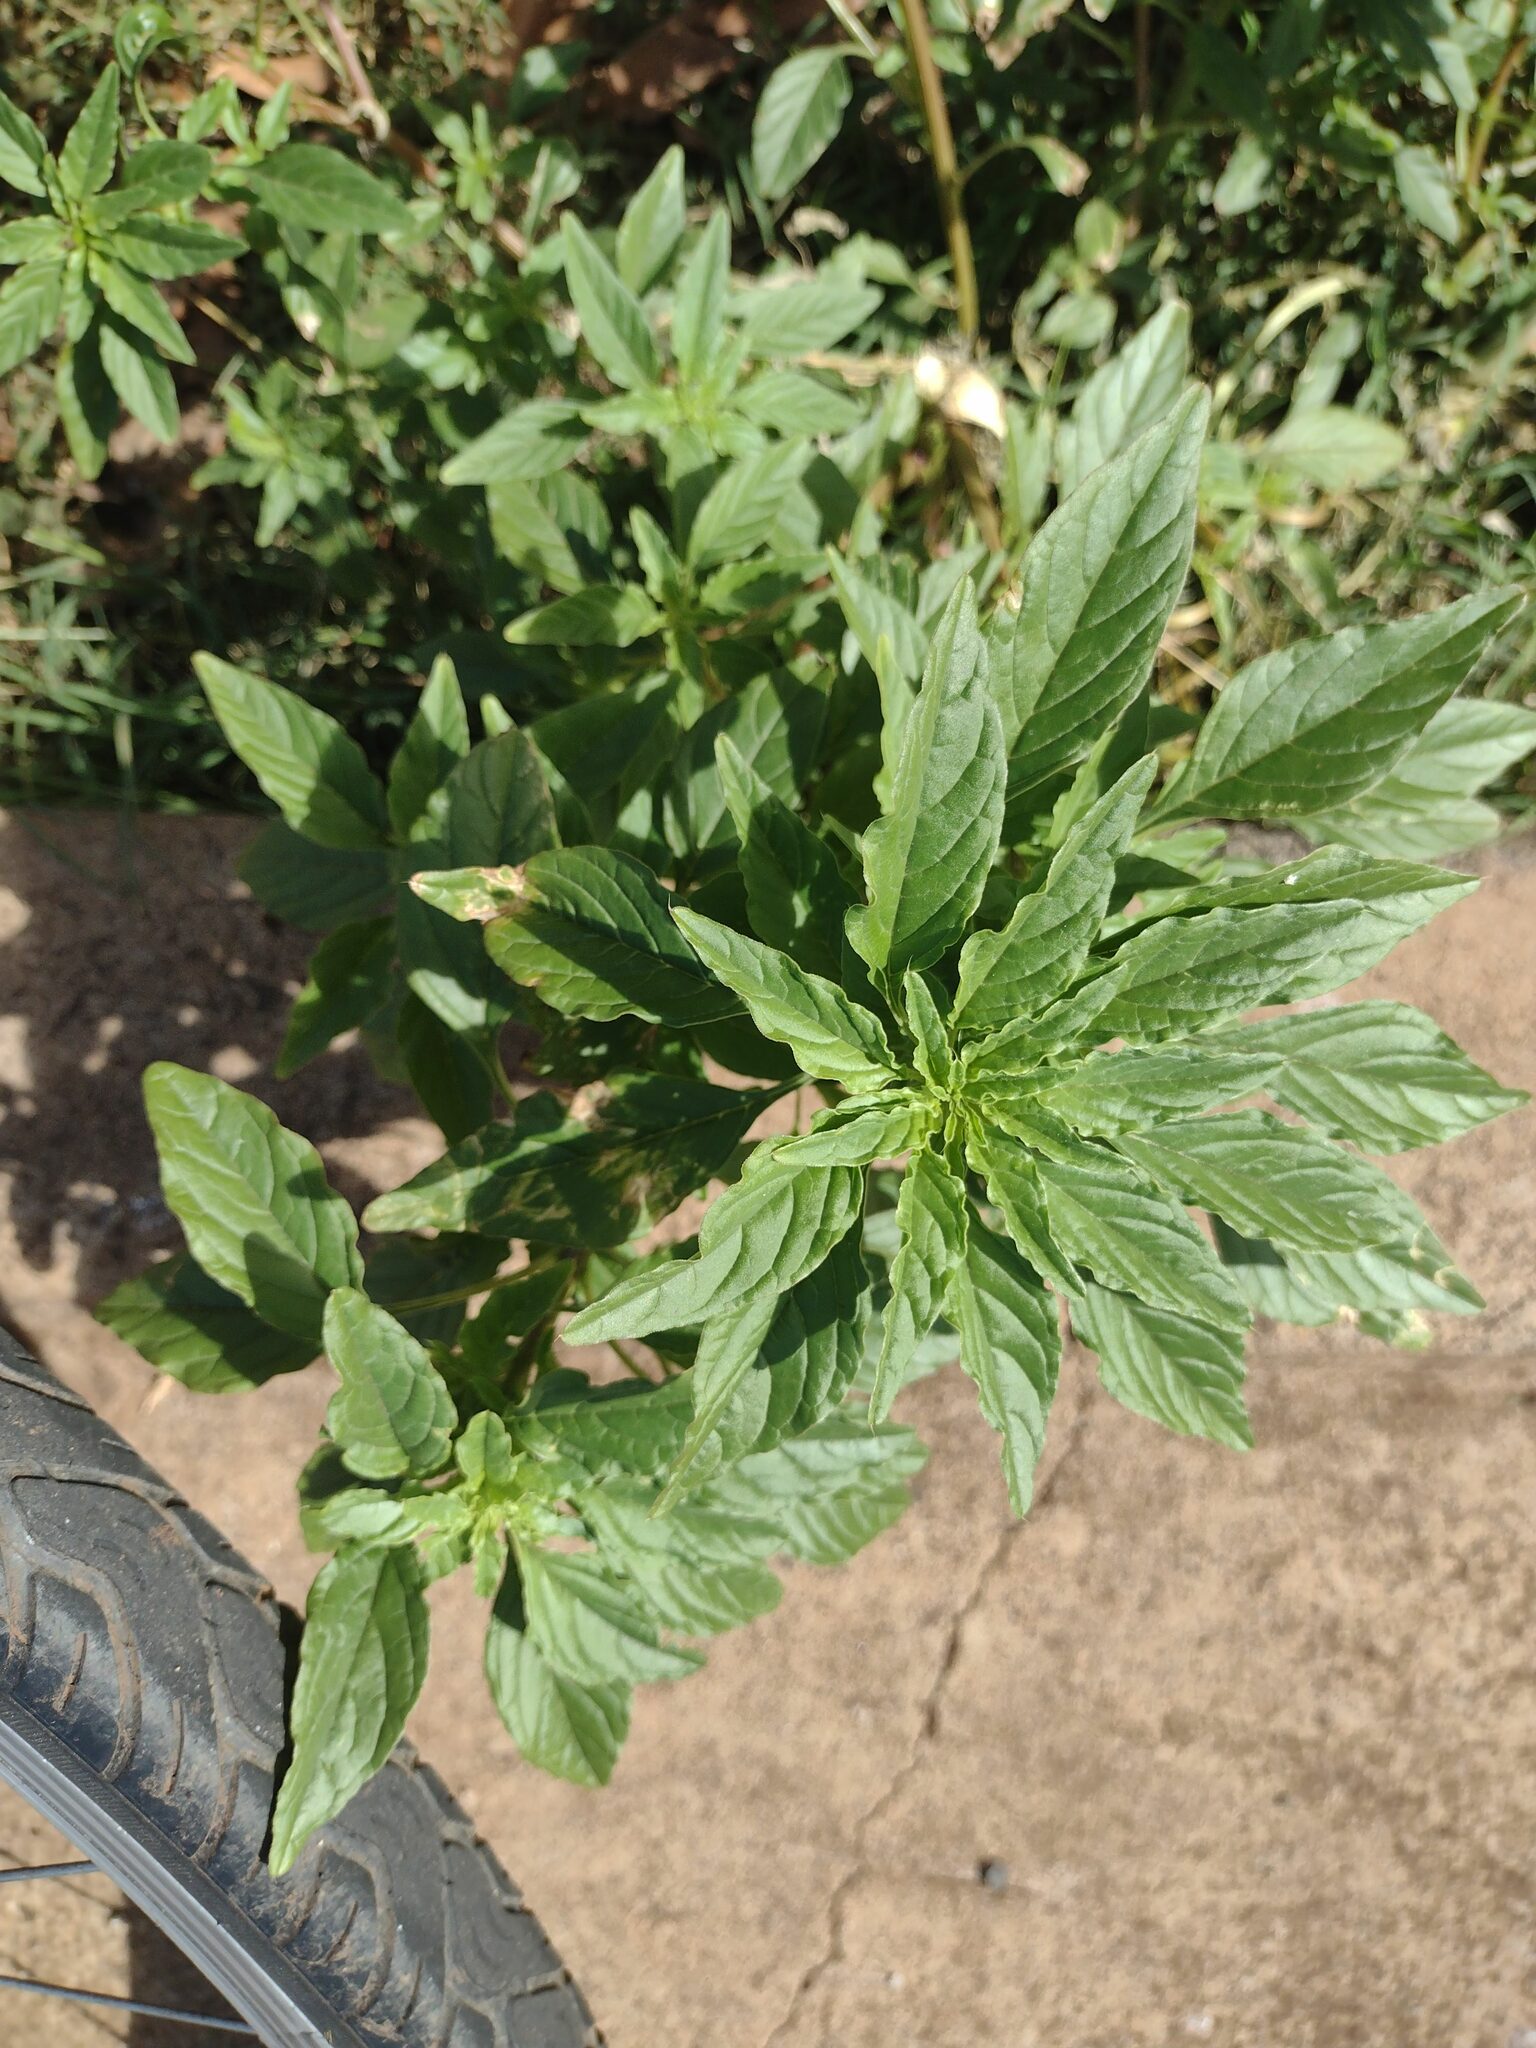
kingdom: Plantae
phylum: Tracheophyta
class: Magnoliopsida
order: Caryophyllales
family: Amaranthaceae
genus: Amaranthus
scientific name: Amaranthus palmeri
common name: Dioecious amaranth
